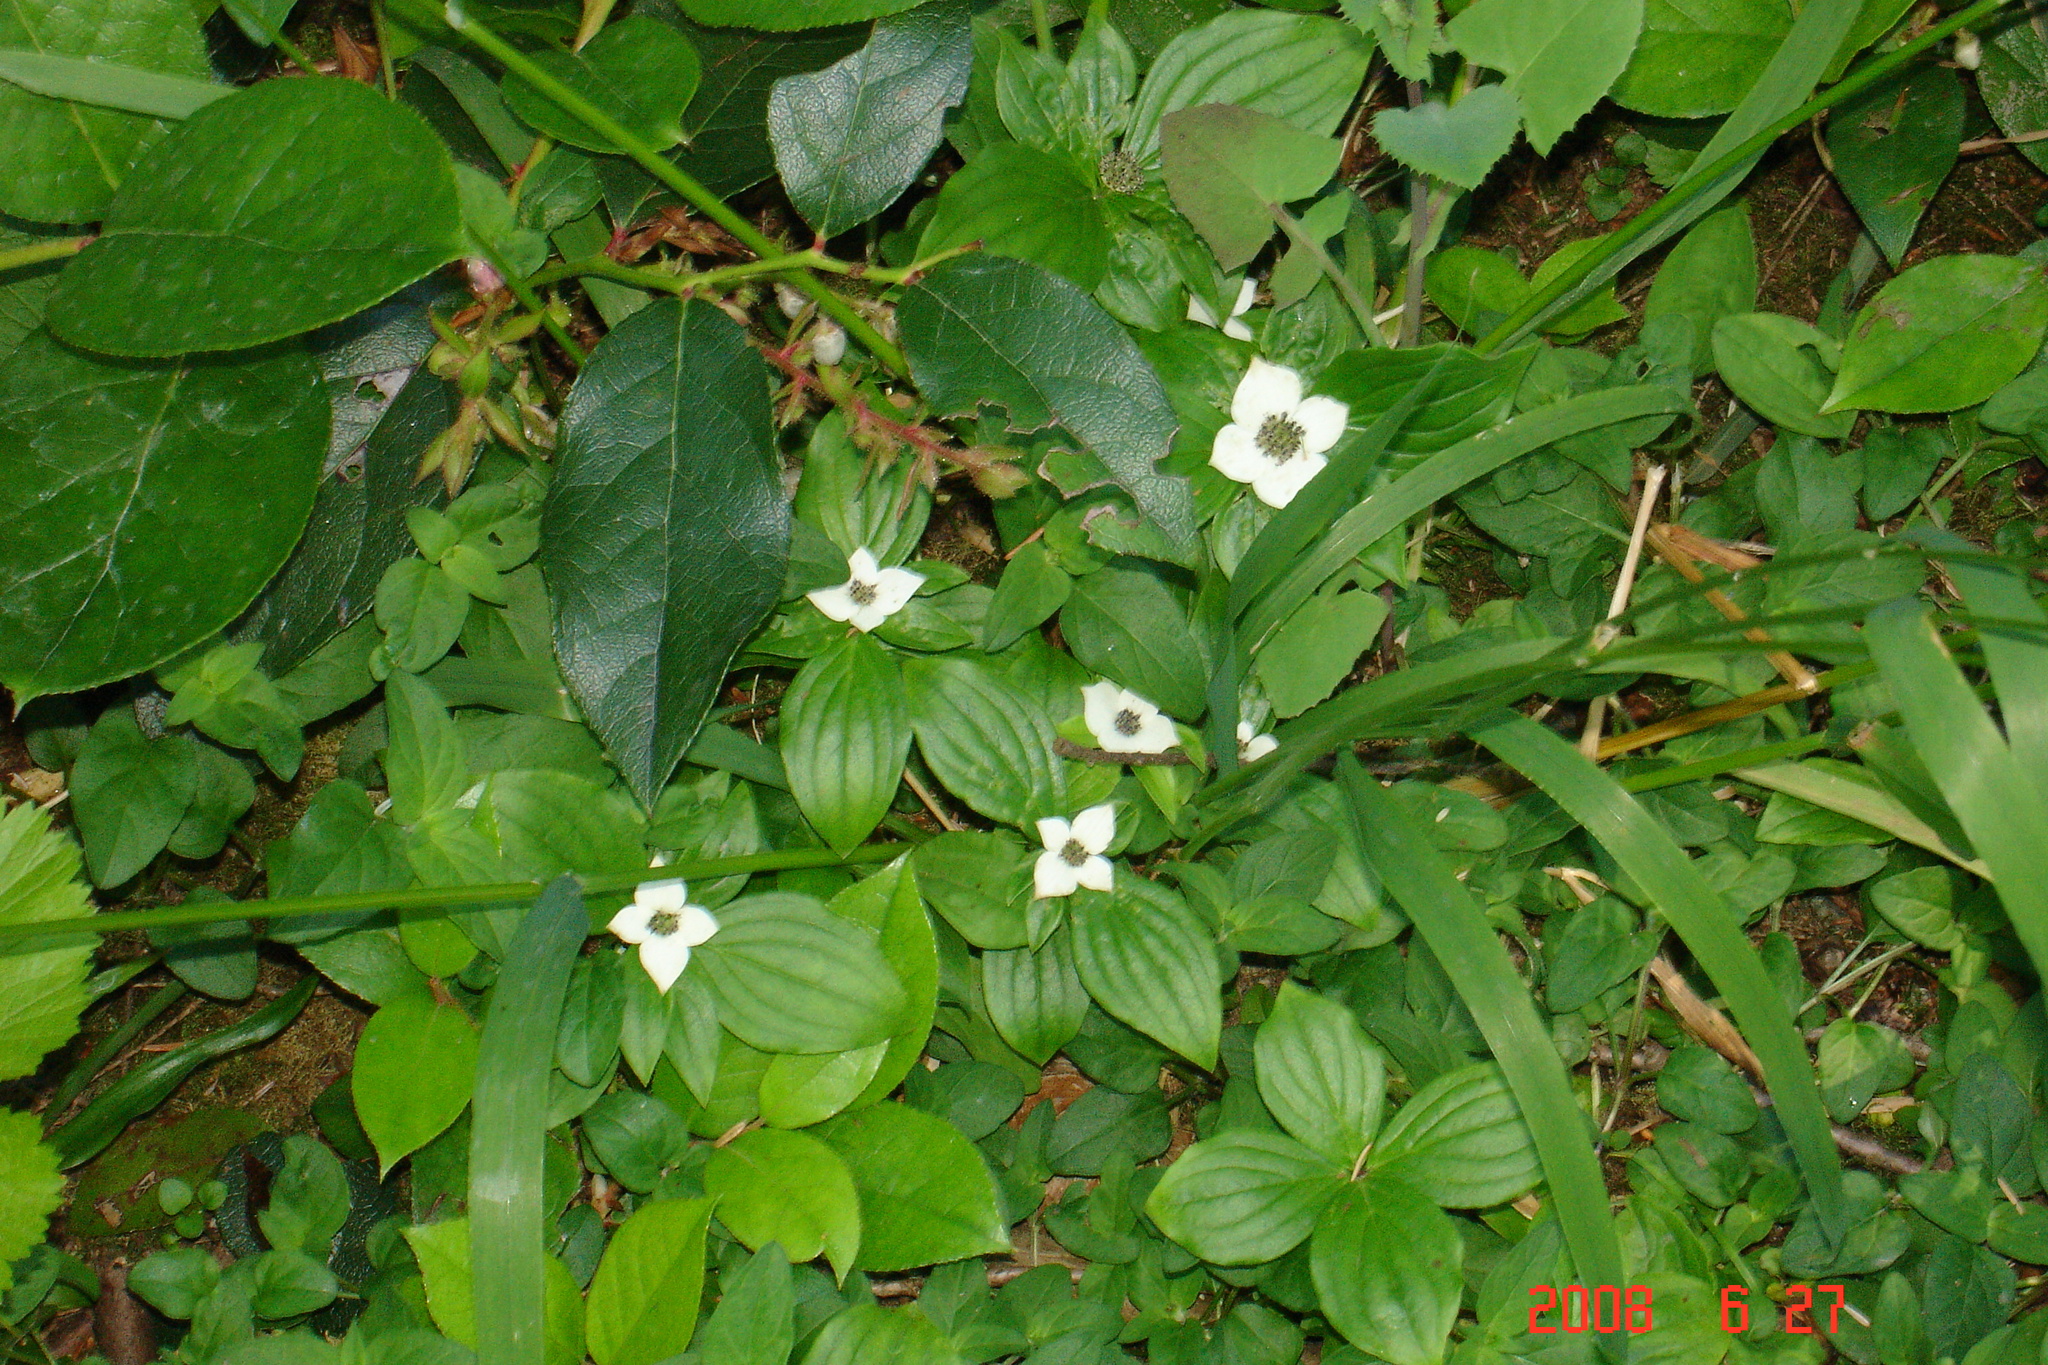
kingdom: Plantae
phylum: Tracheophyta
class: Magnoliopsida
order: Cornales
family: Cornaceae
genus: Cornus
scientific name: Cornus unalaschkensis
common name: Alaska bunchberry
